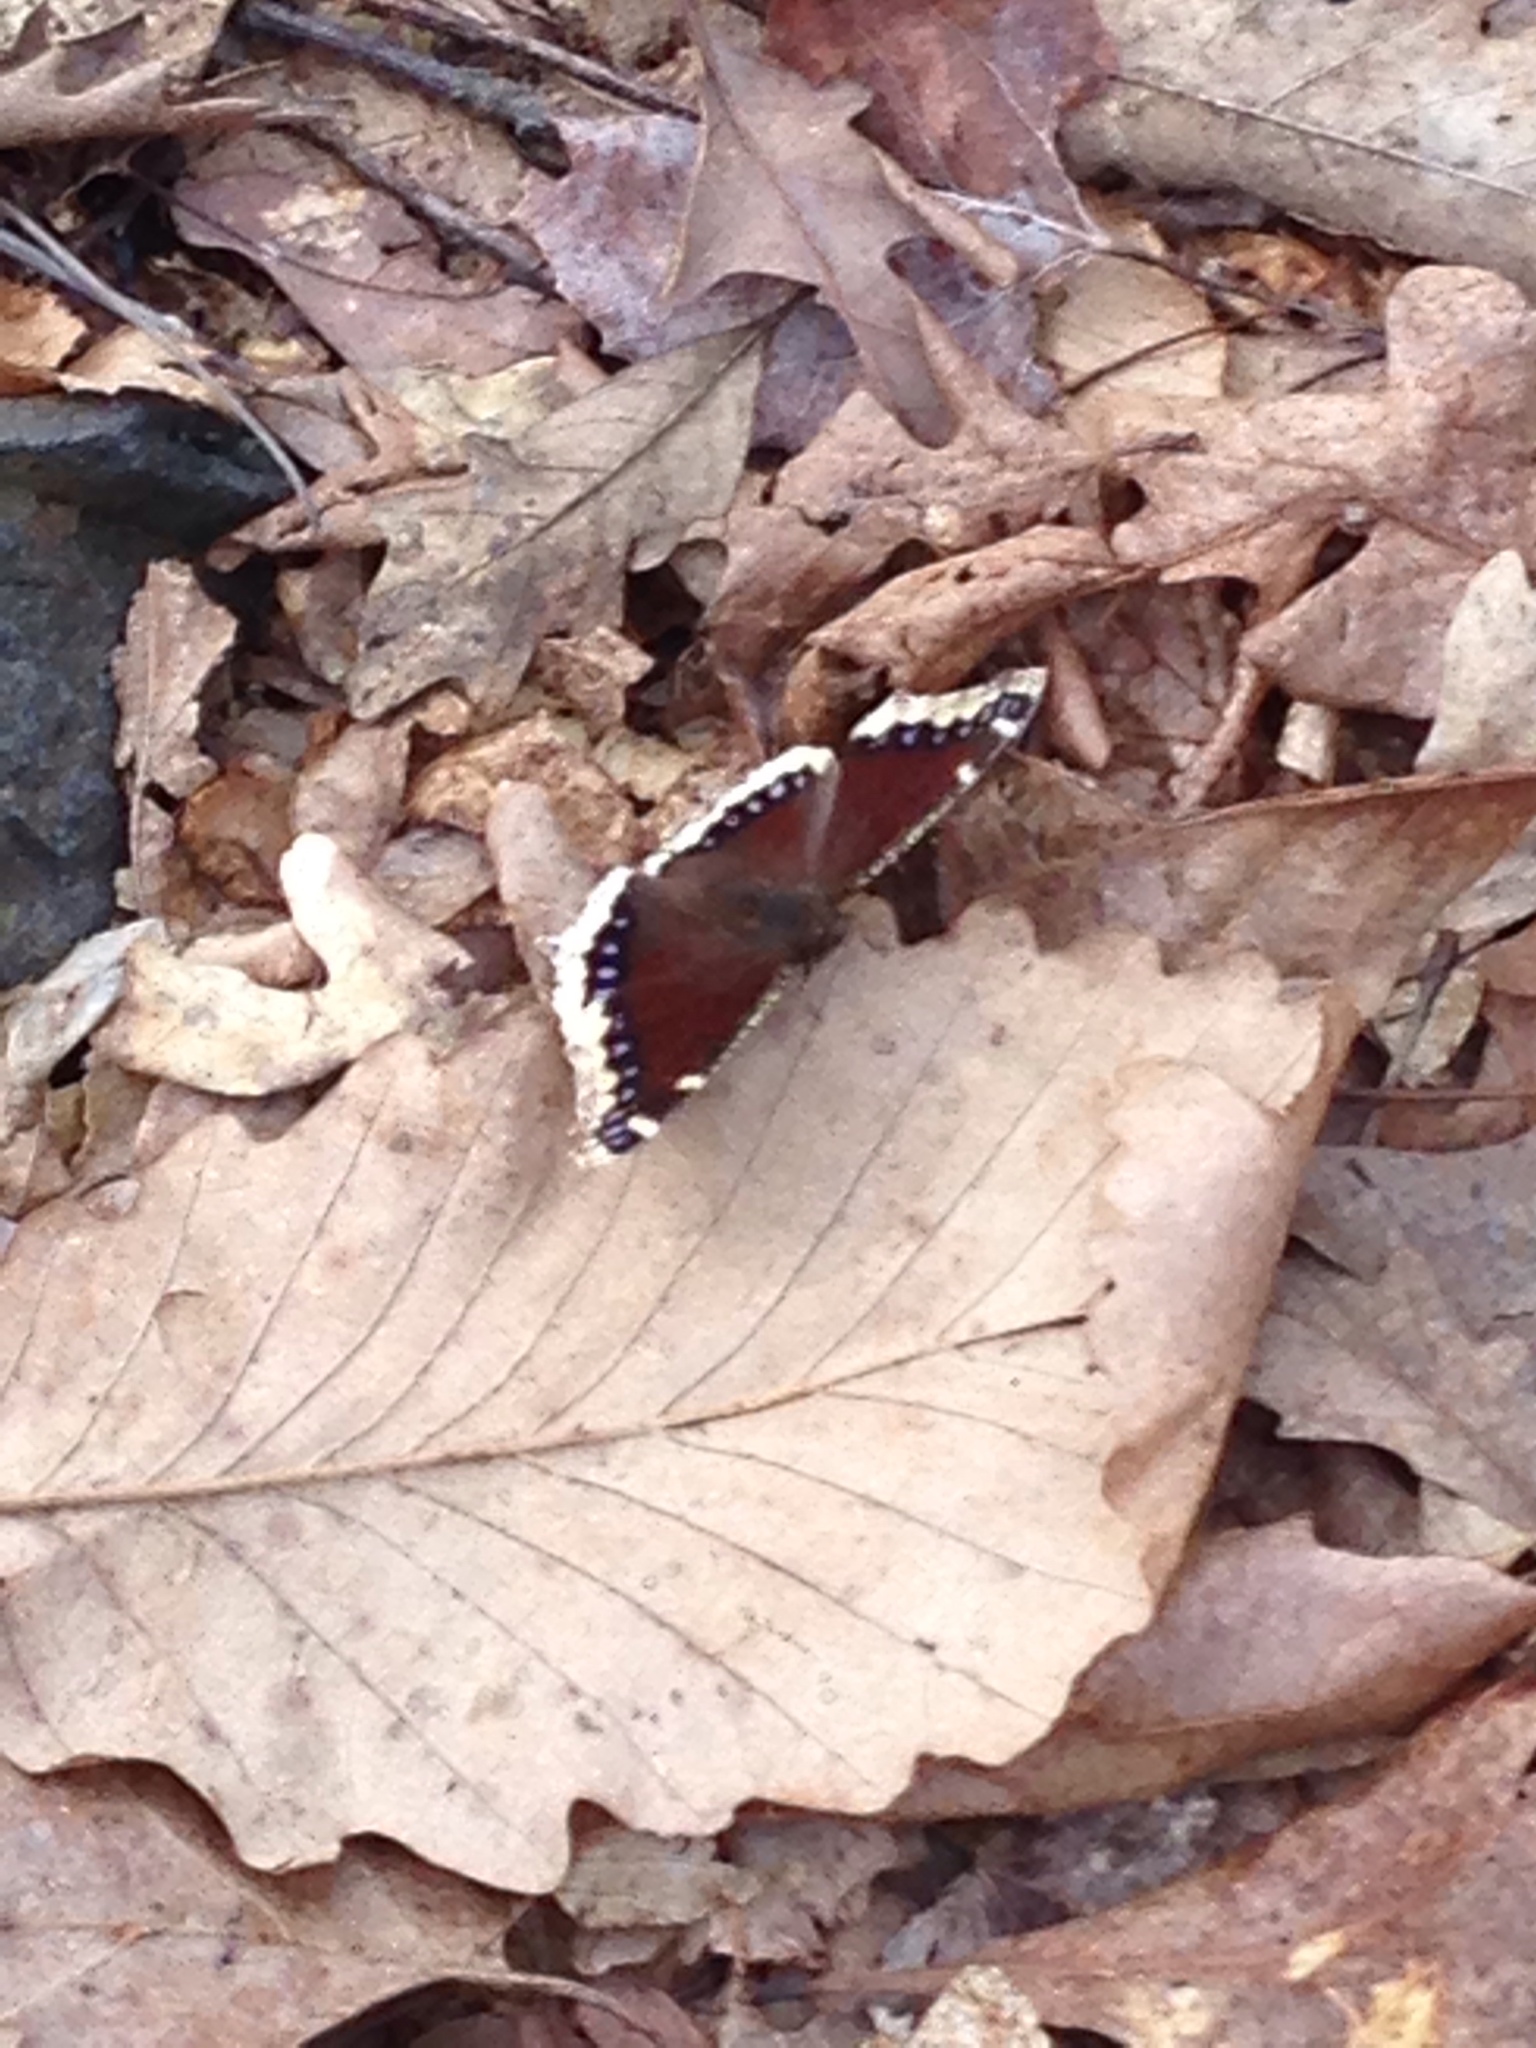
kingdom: Animalia
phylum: Arthropoda
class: Insecta
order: Lepidoptera
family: Nymphalidae
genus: Nymphalis
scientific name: Nymphalis antiopa
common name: Camberwell beauty
